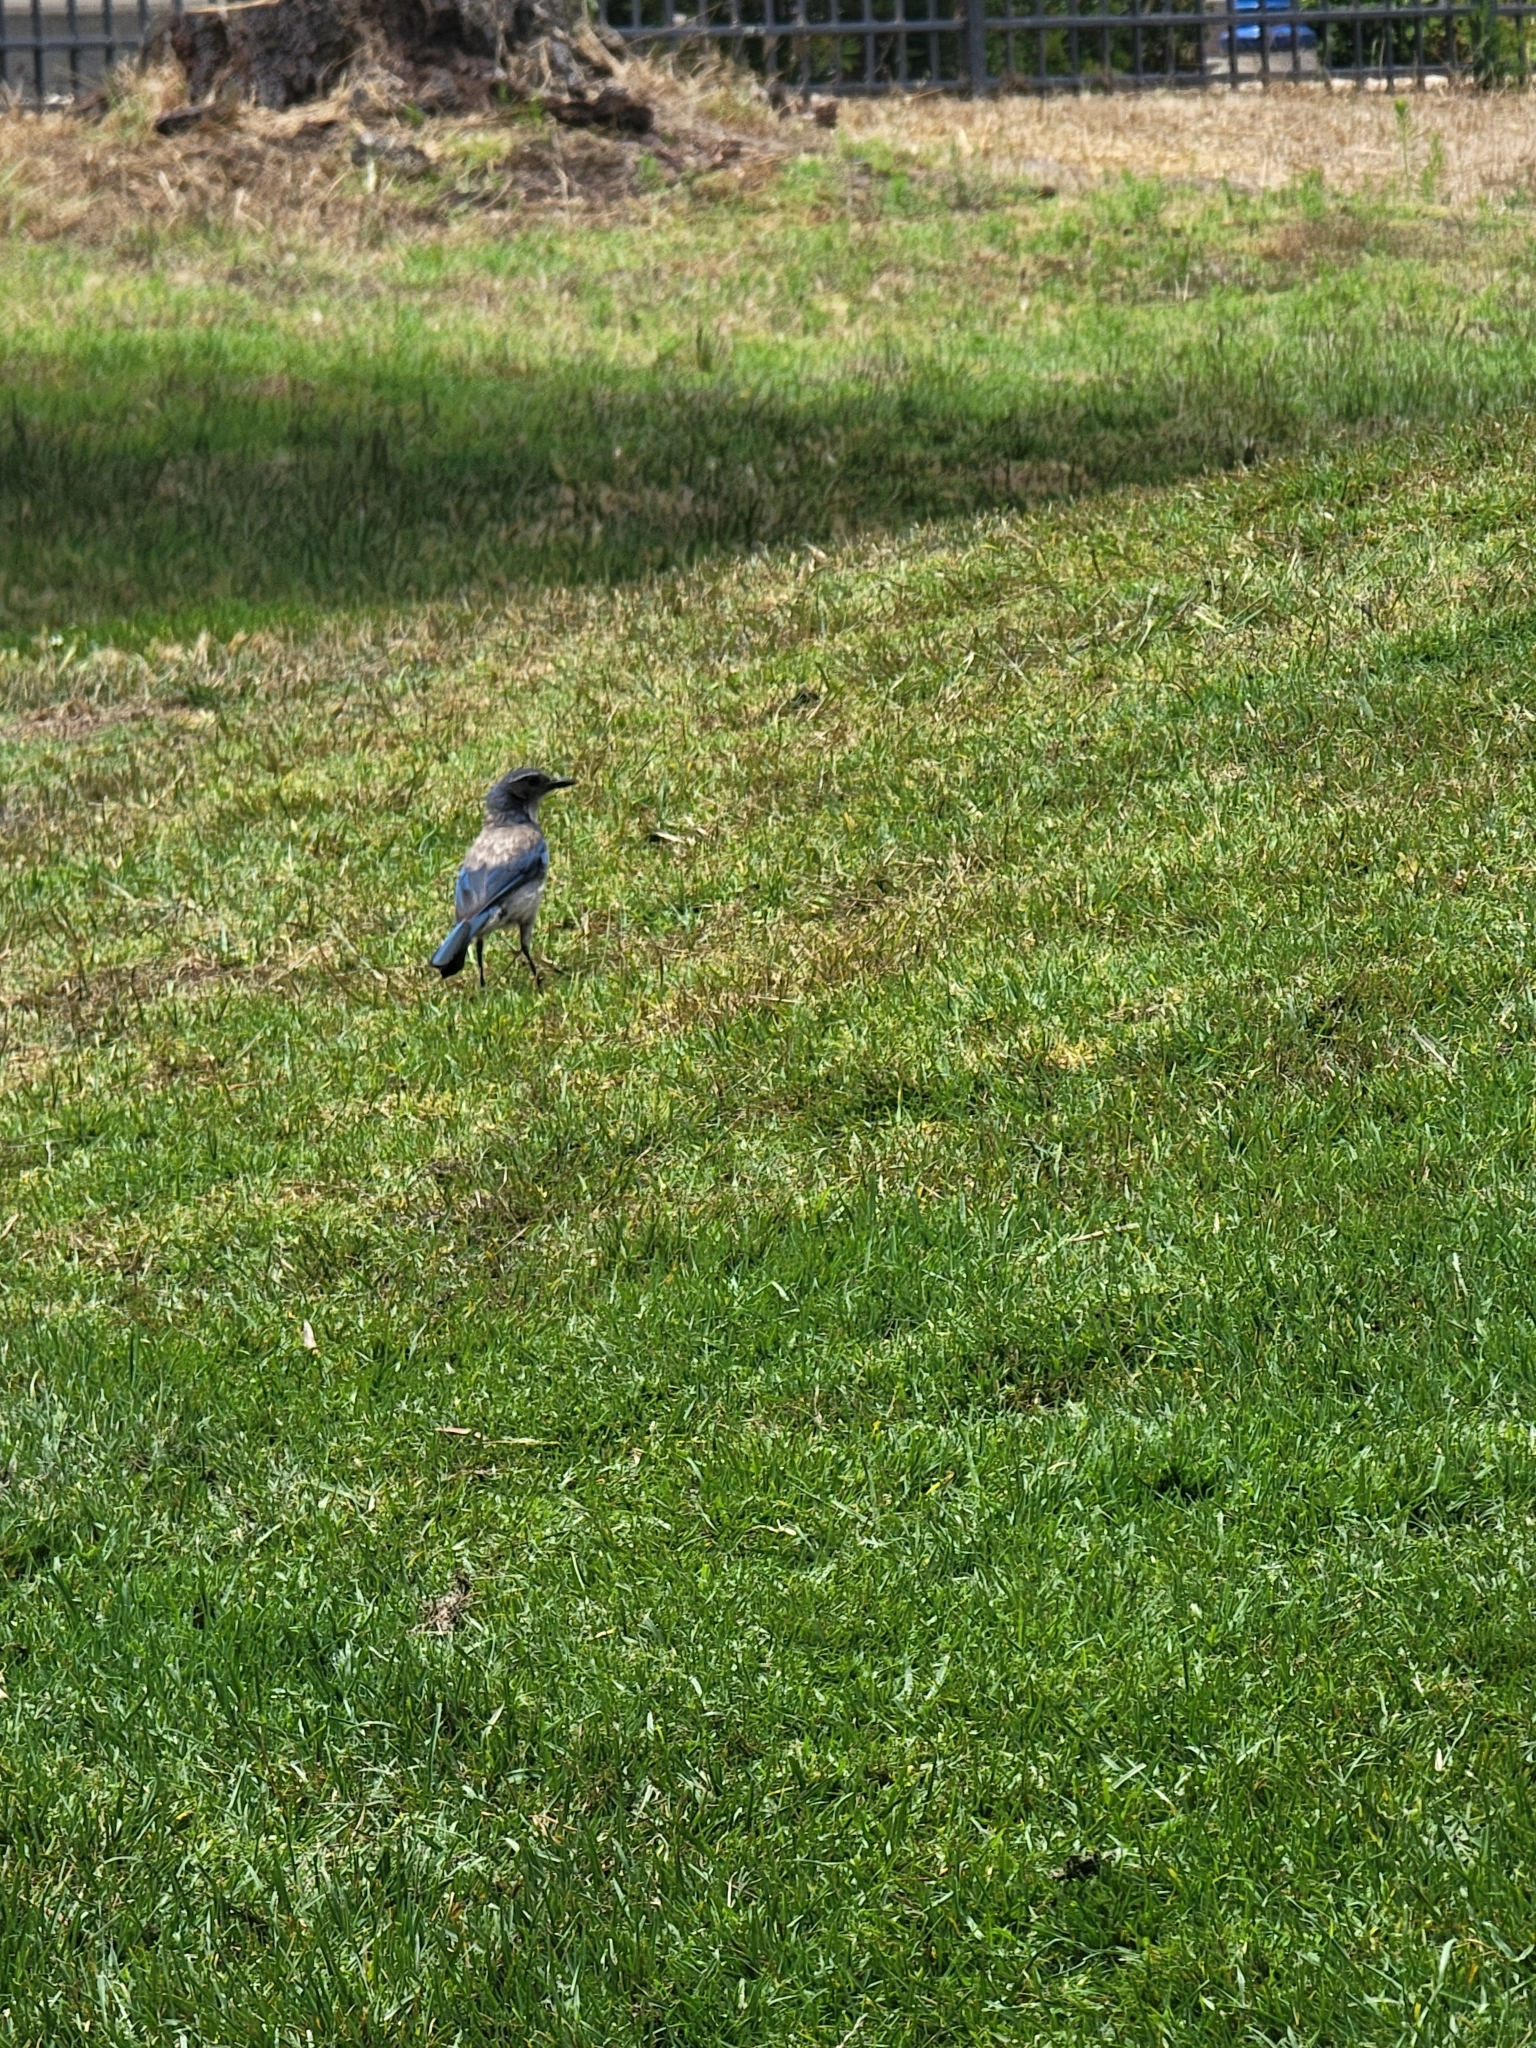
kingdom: Animalia
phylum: Chordata
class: Aves
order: Passeriformes
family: Corvidae
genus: Aphelocoma
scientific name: Aphelocoma californica
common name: California scrub-jay
